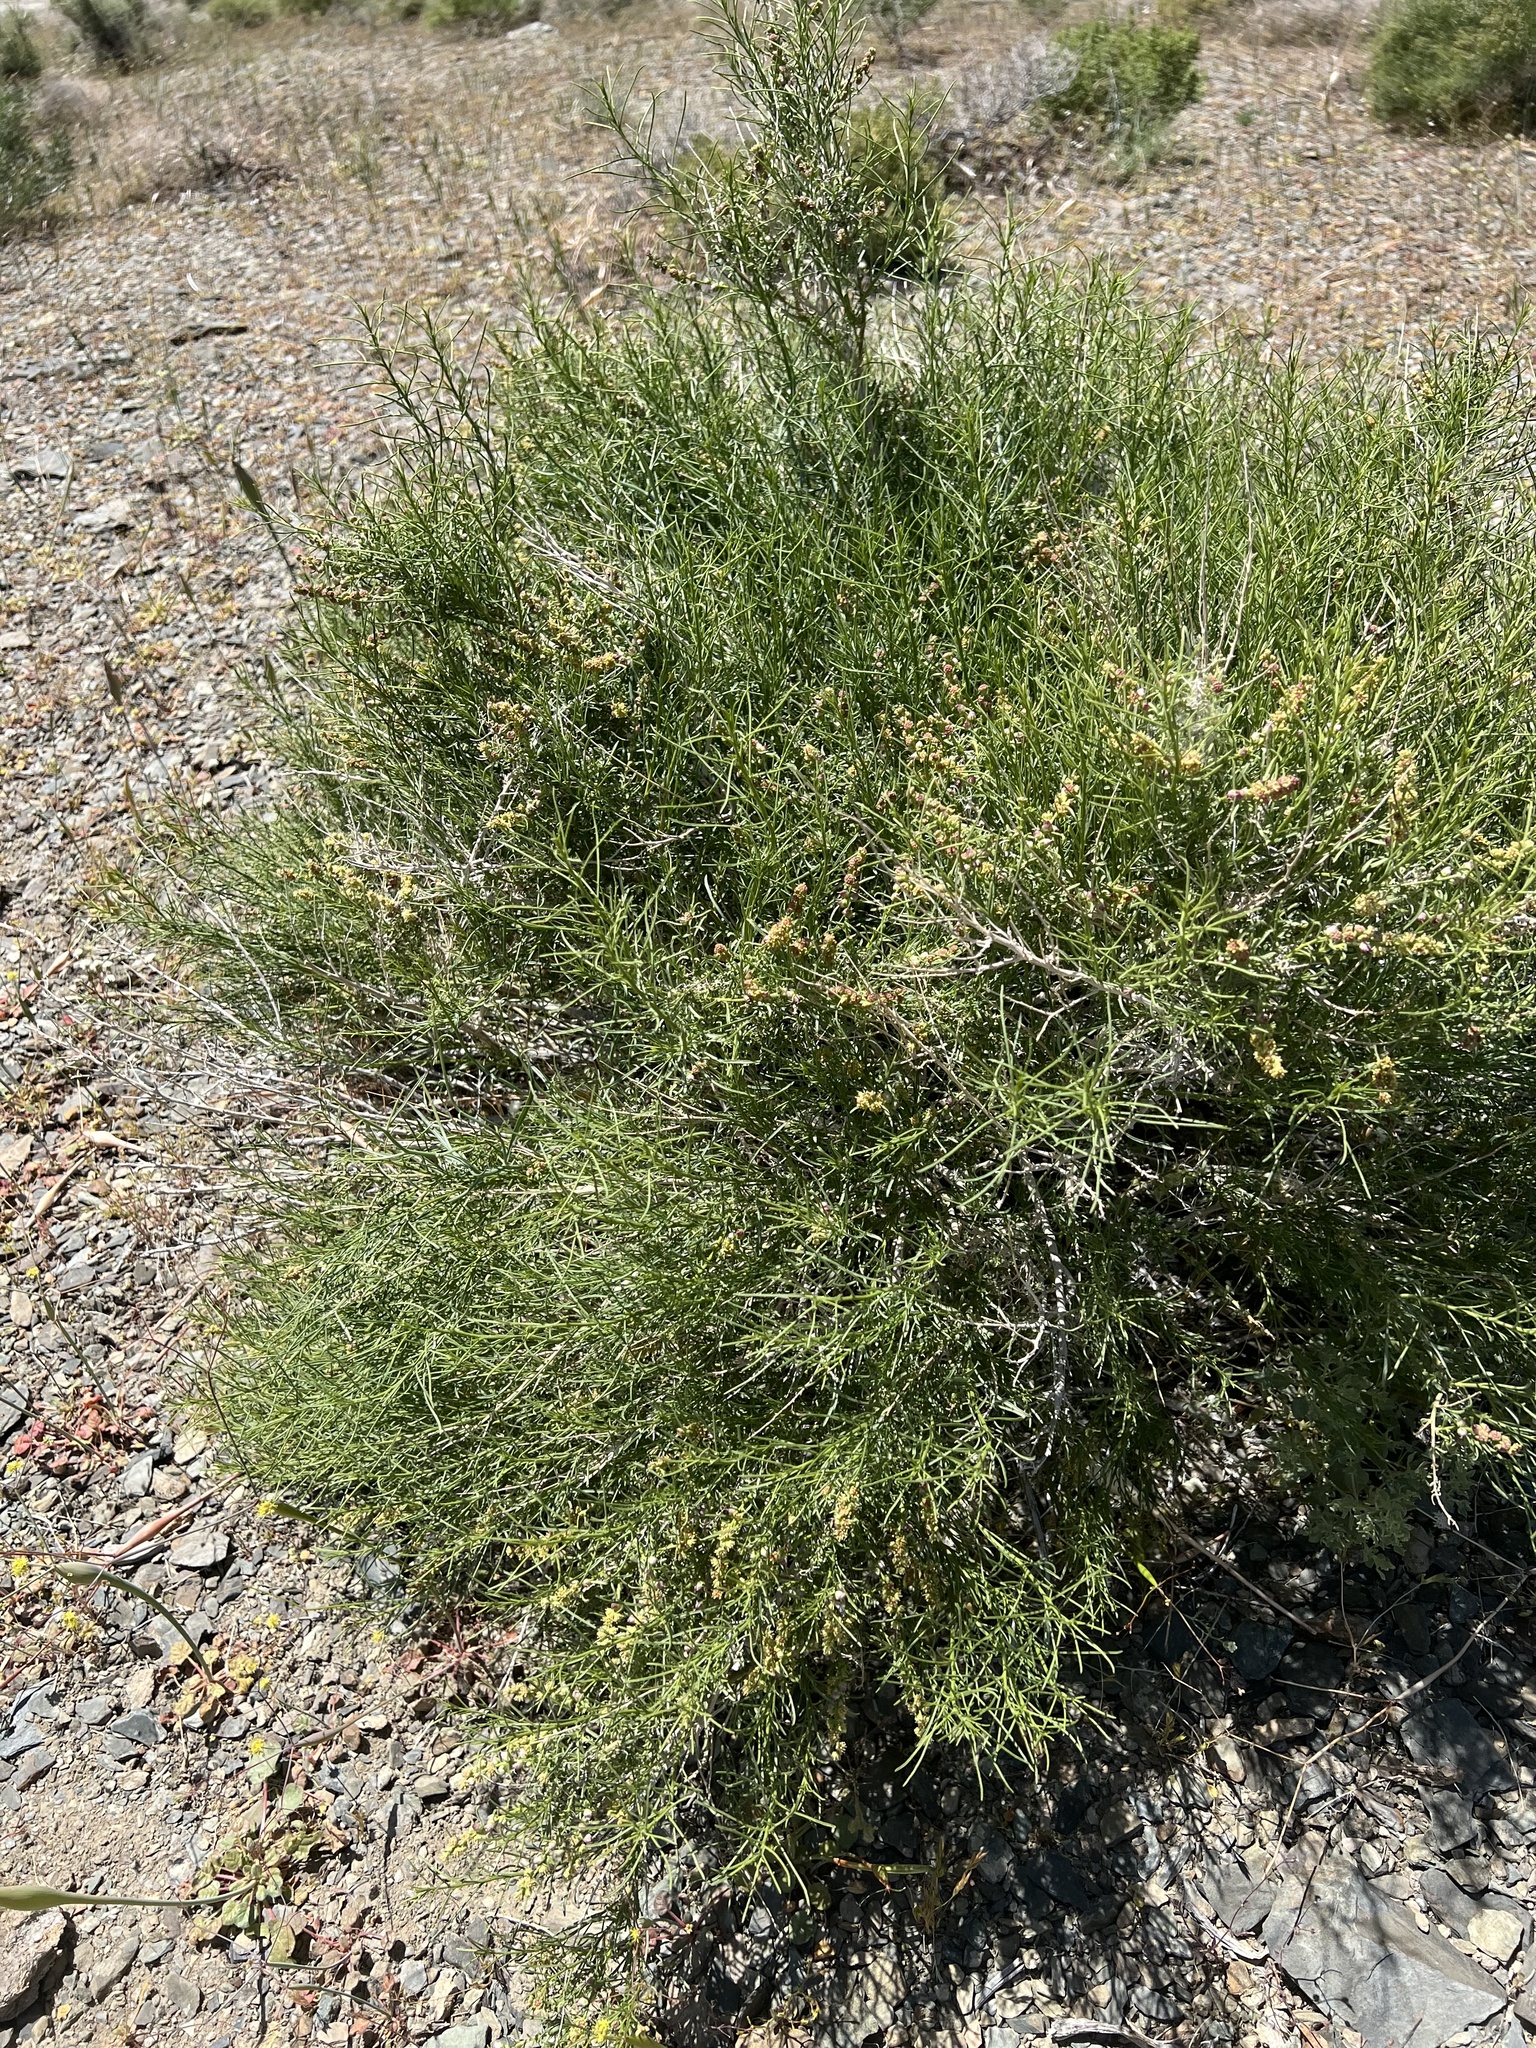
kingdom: Plantae
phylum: Tracheophyta
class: Magnoliopsida
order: Asterales
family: Asteraceae
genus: Ambrosia
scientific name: Ambrosia salsola
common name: Burrobrush
